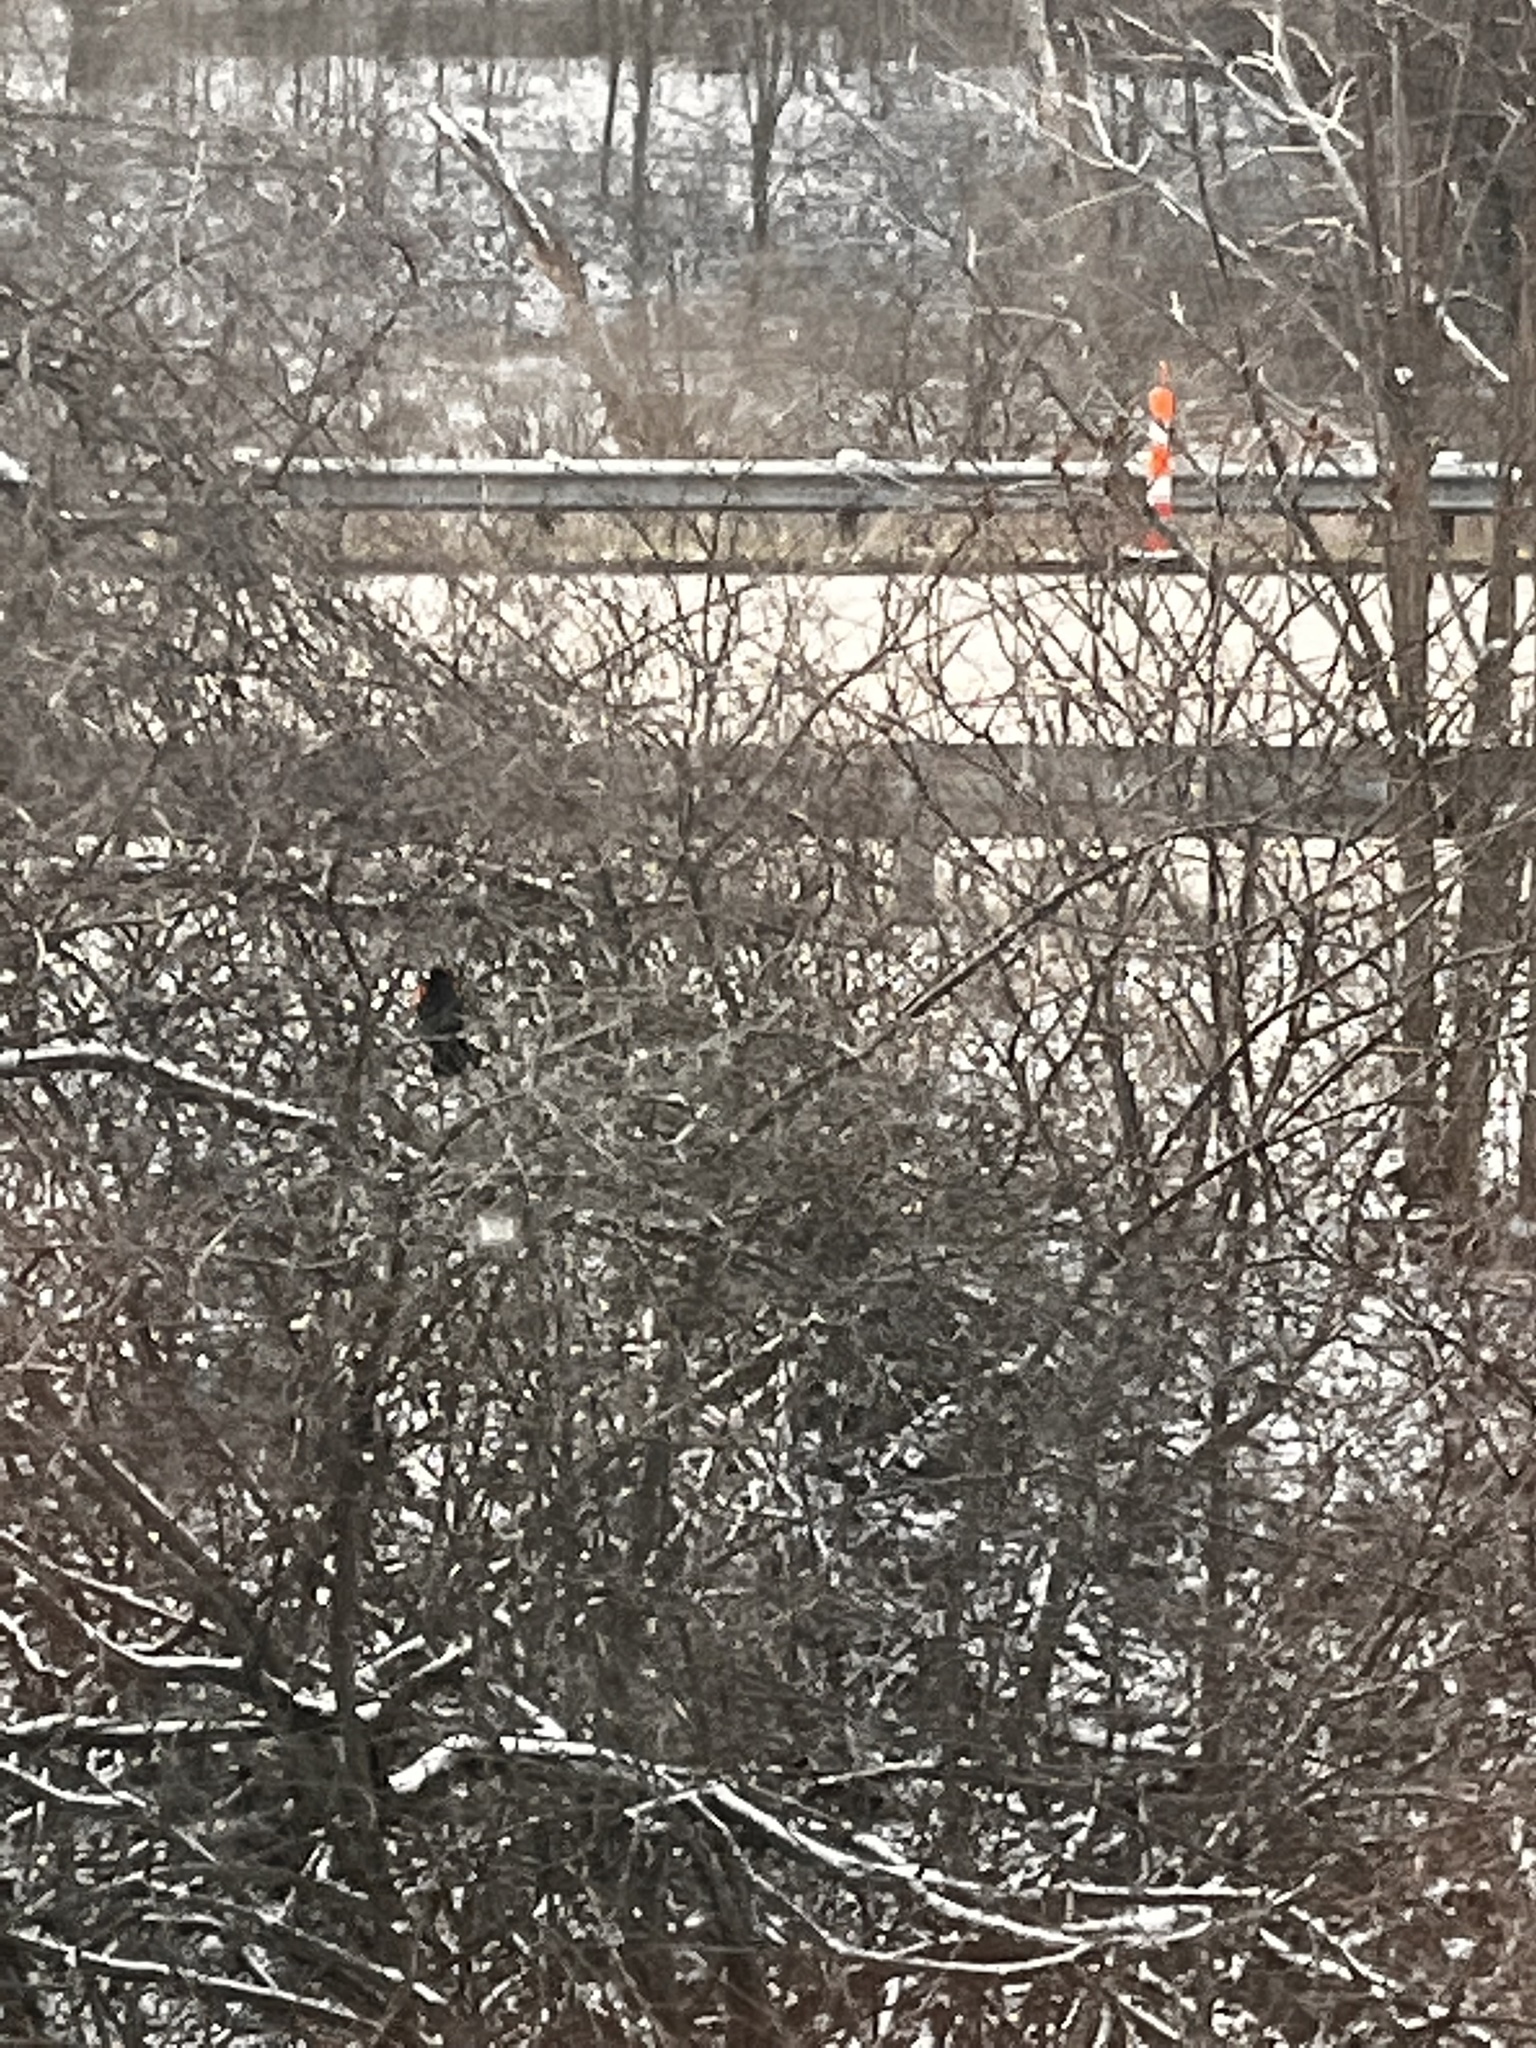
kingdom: Animalia
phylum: Chordata
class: Aves
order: Passeriformes
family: Icteridae
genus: Agelaius
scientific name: Agelaius phoeniceus
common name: Red-winged blackbird
